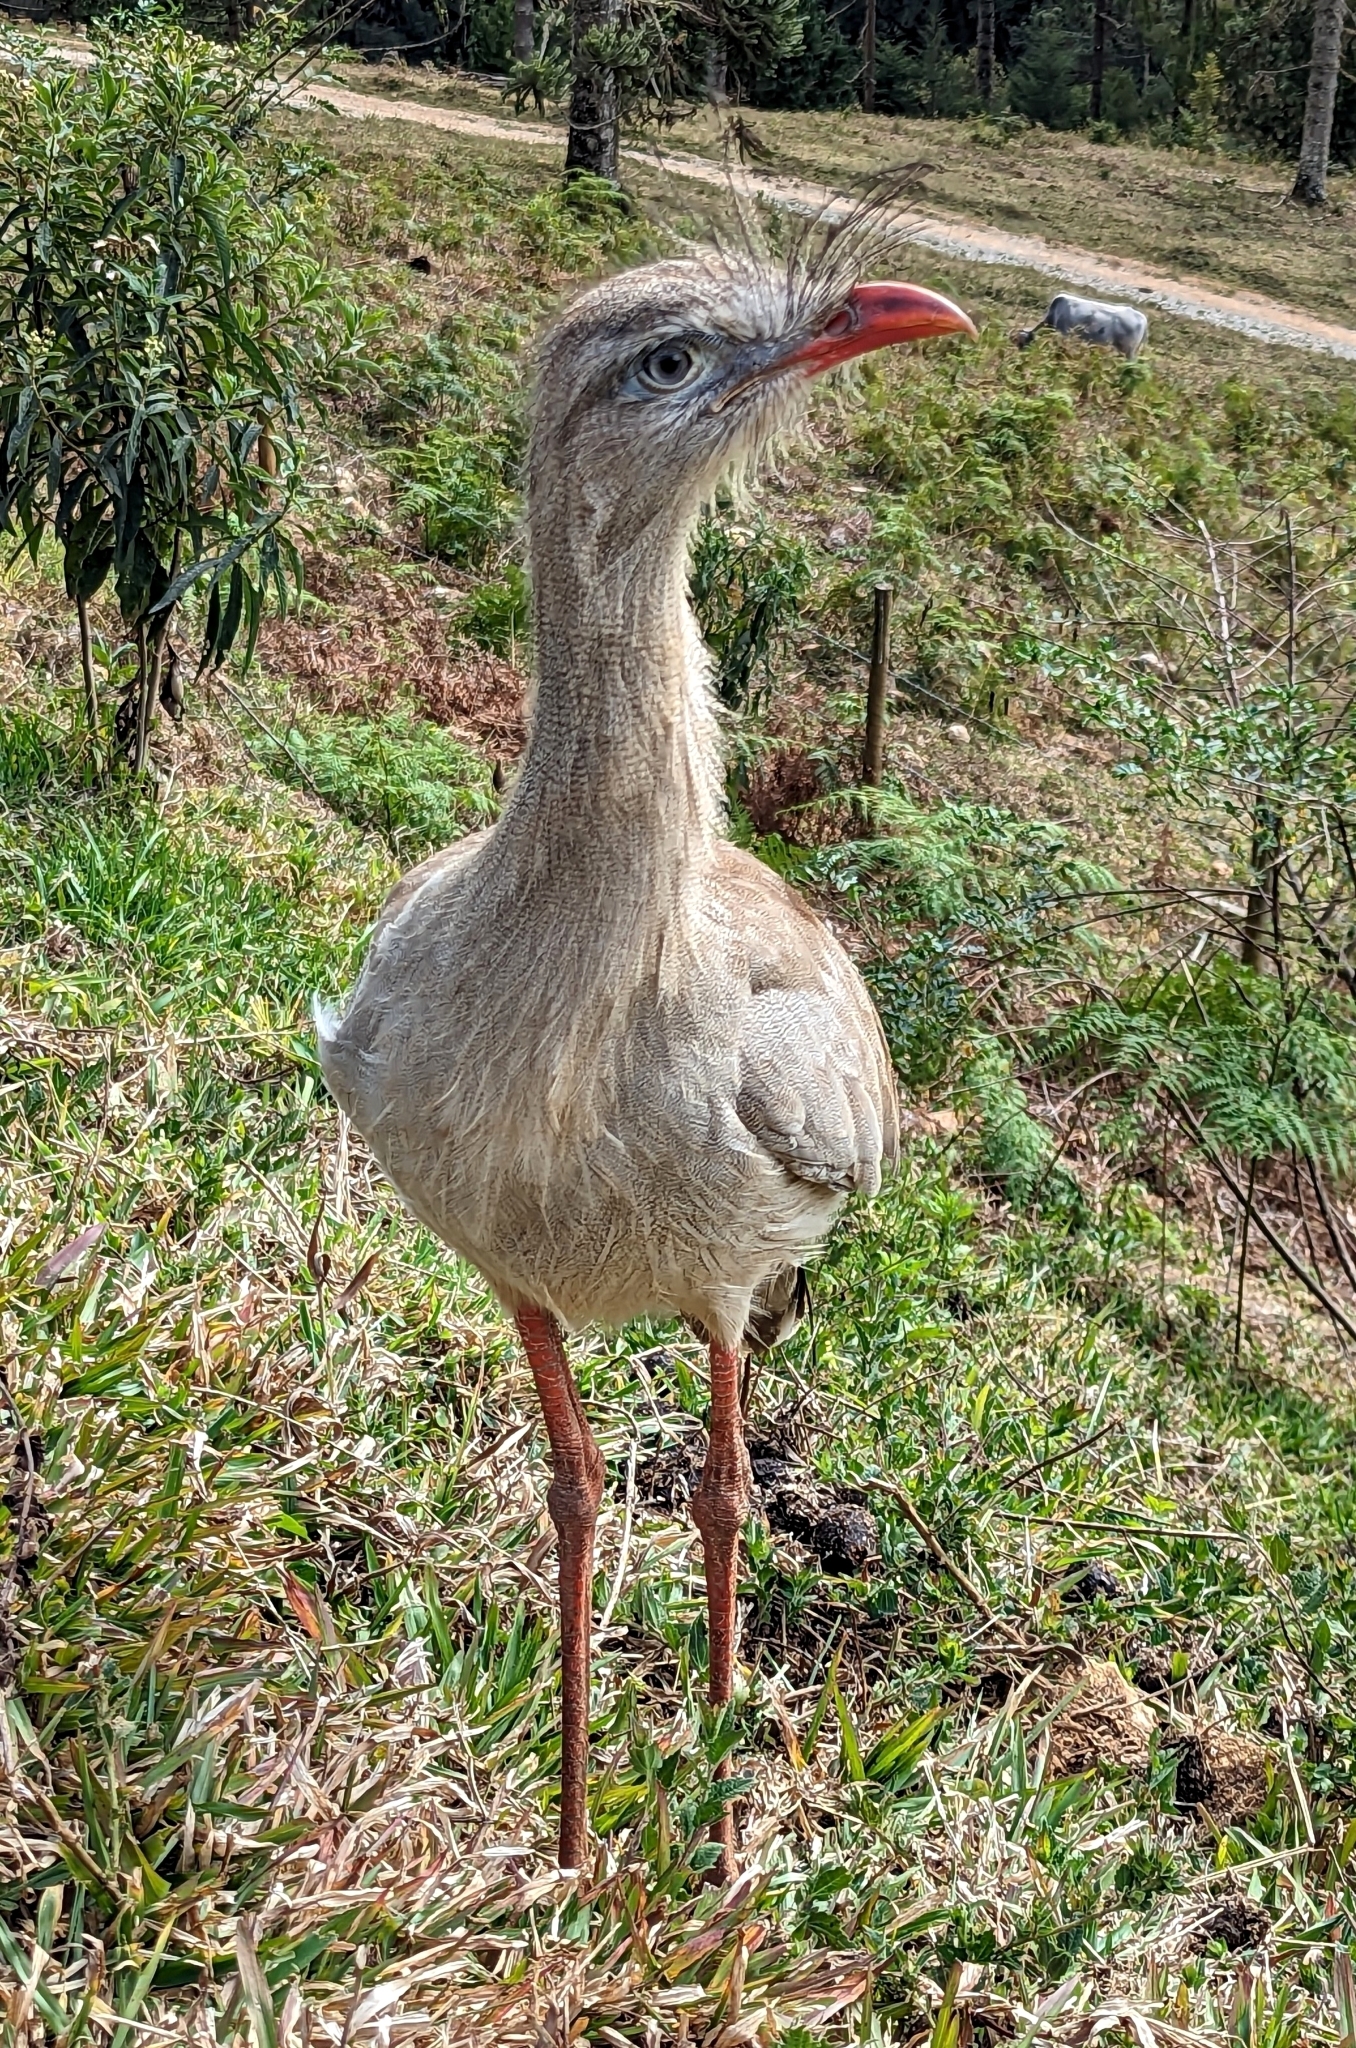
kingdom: Animalia
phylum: Chordata
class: Aves
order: Cariamiformes
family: Cariamidae
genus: Cariama
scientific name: Cariama cristata
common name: Red-legged seriema
